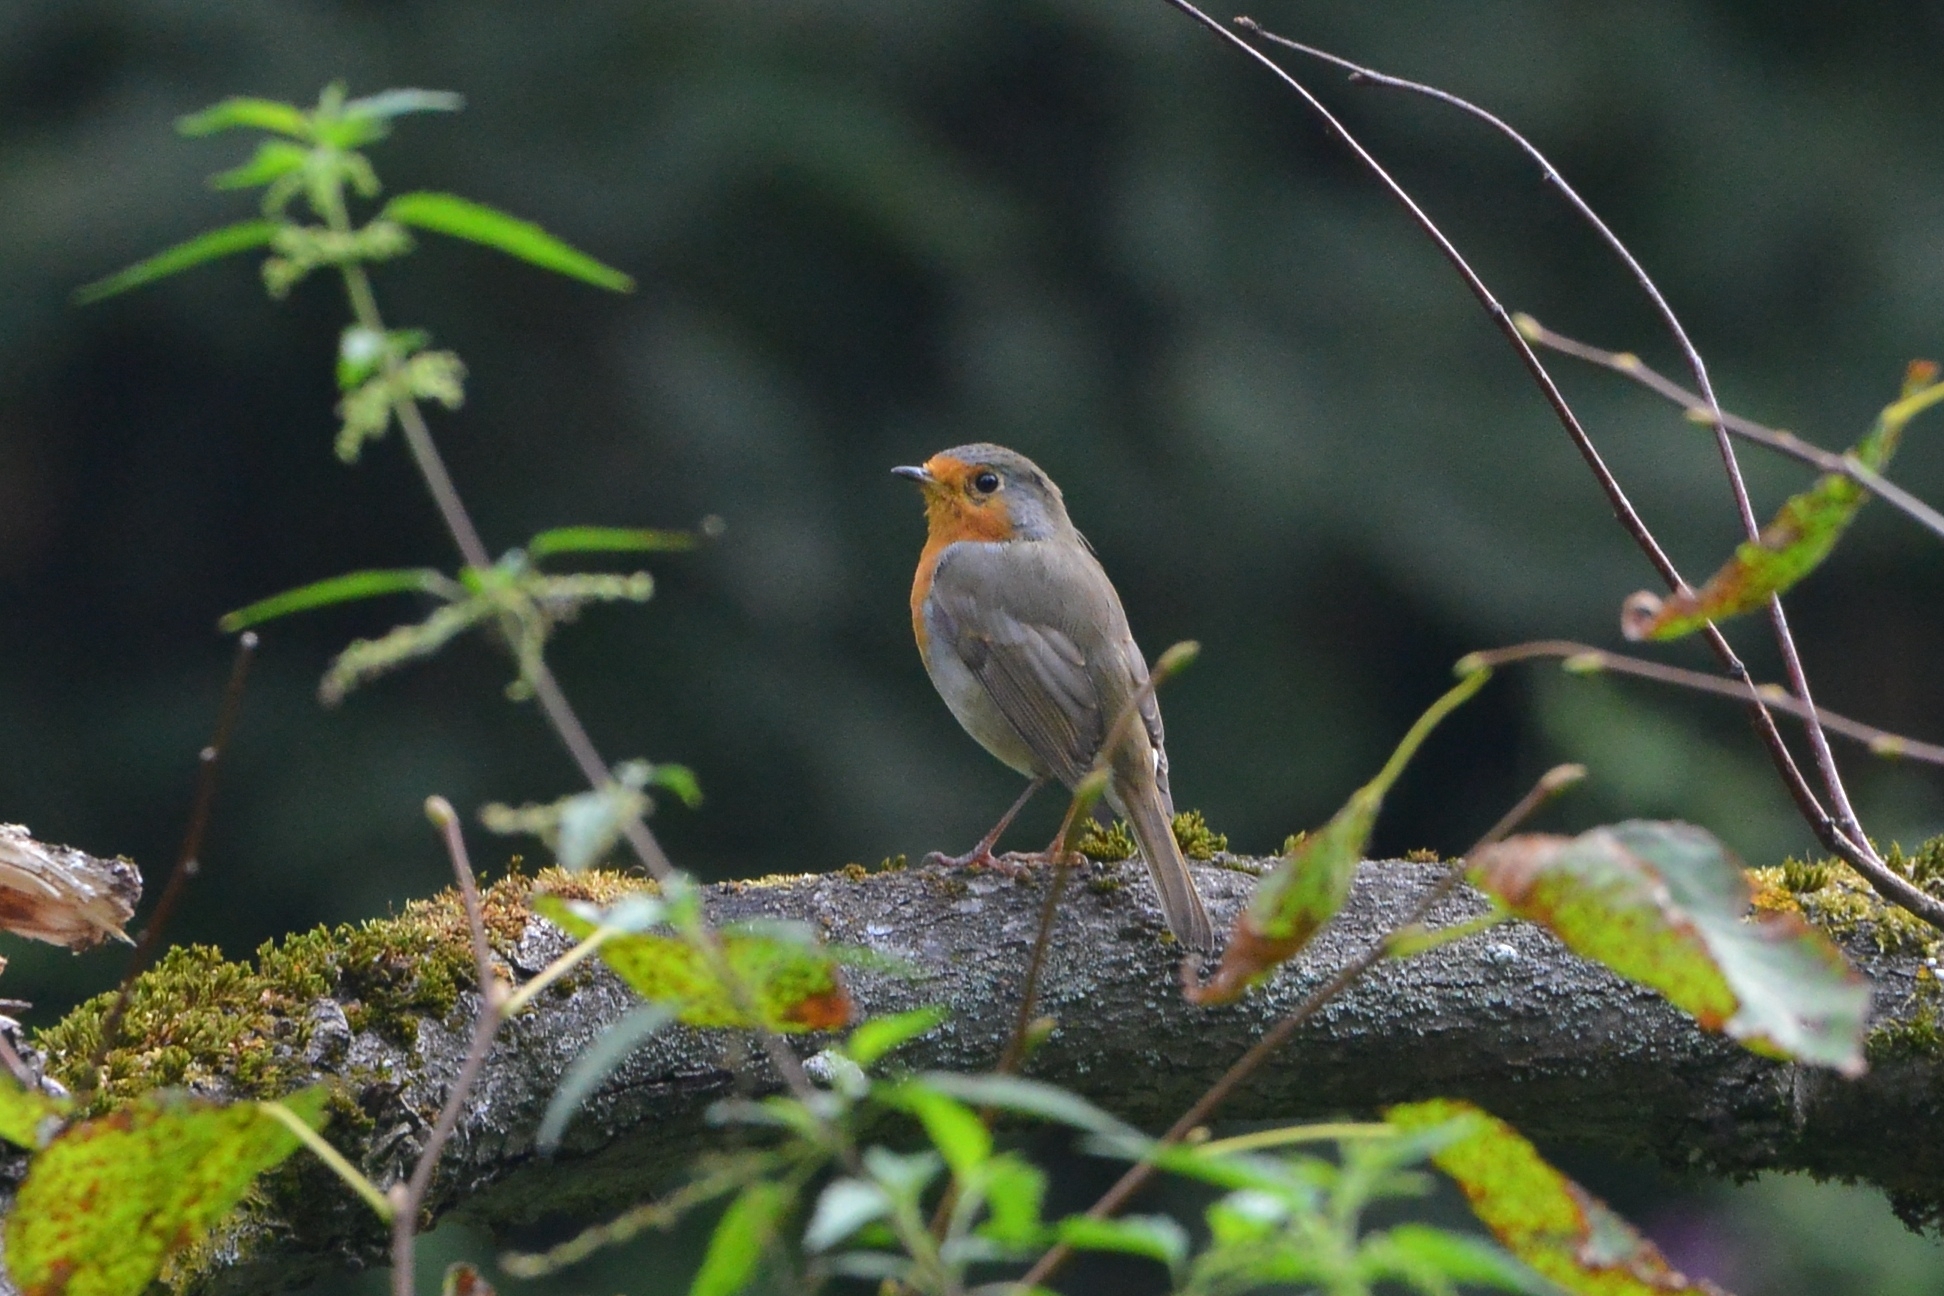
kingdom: Animalia
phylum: Chordata
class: Aves
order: Passeriformes
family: Muscicapidae
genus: Erithacus
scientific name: Erithacus rubecula
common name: European robin
